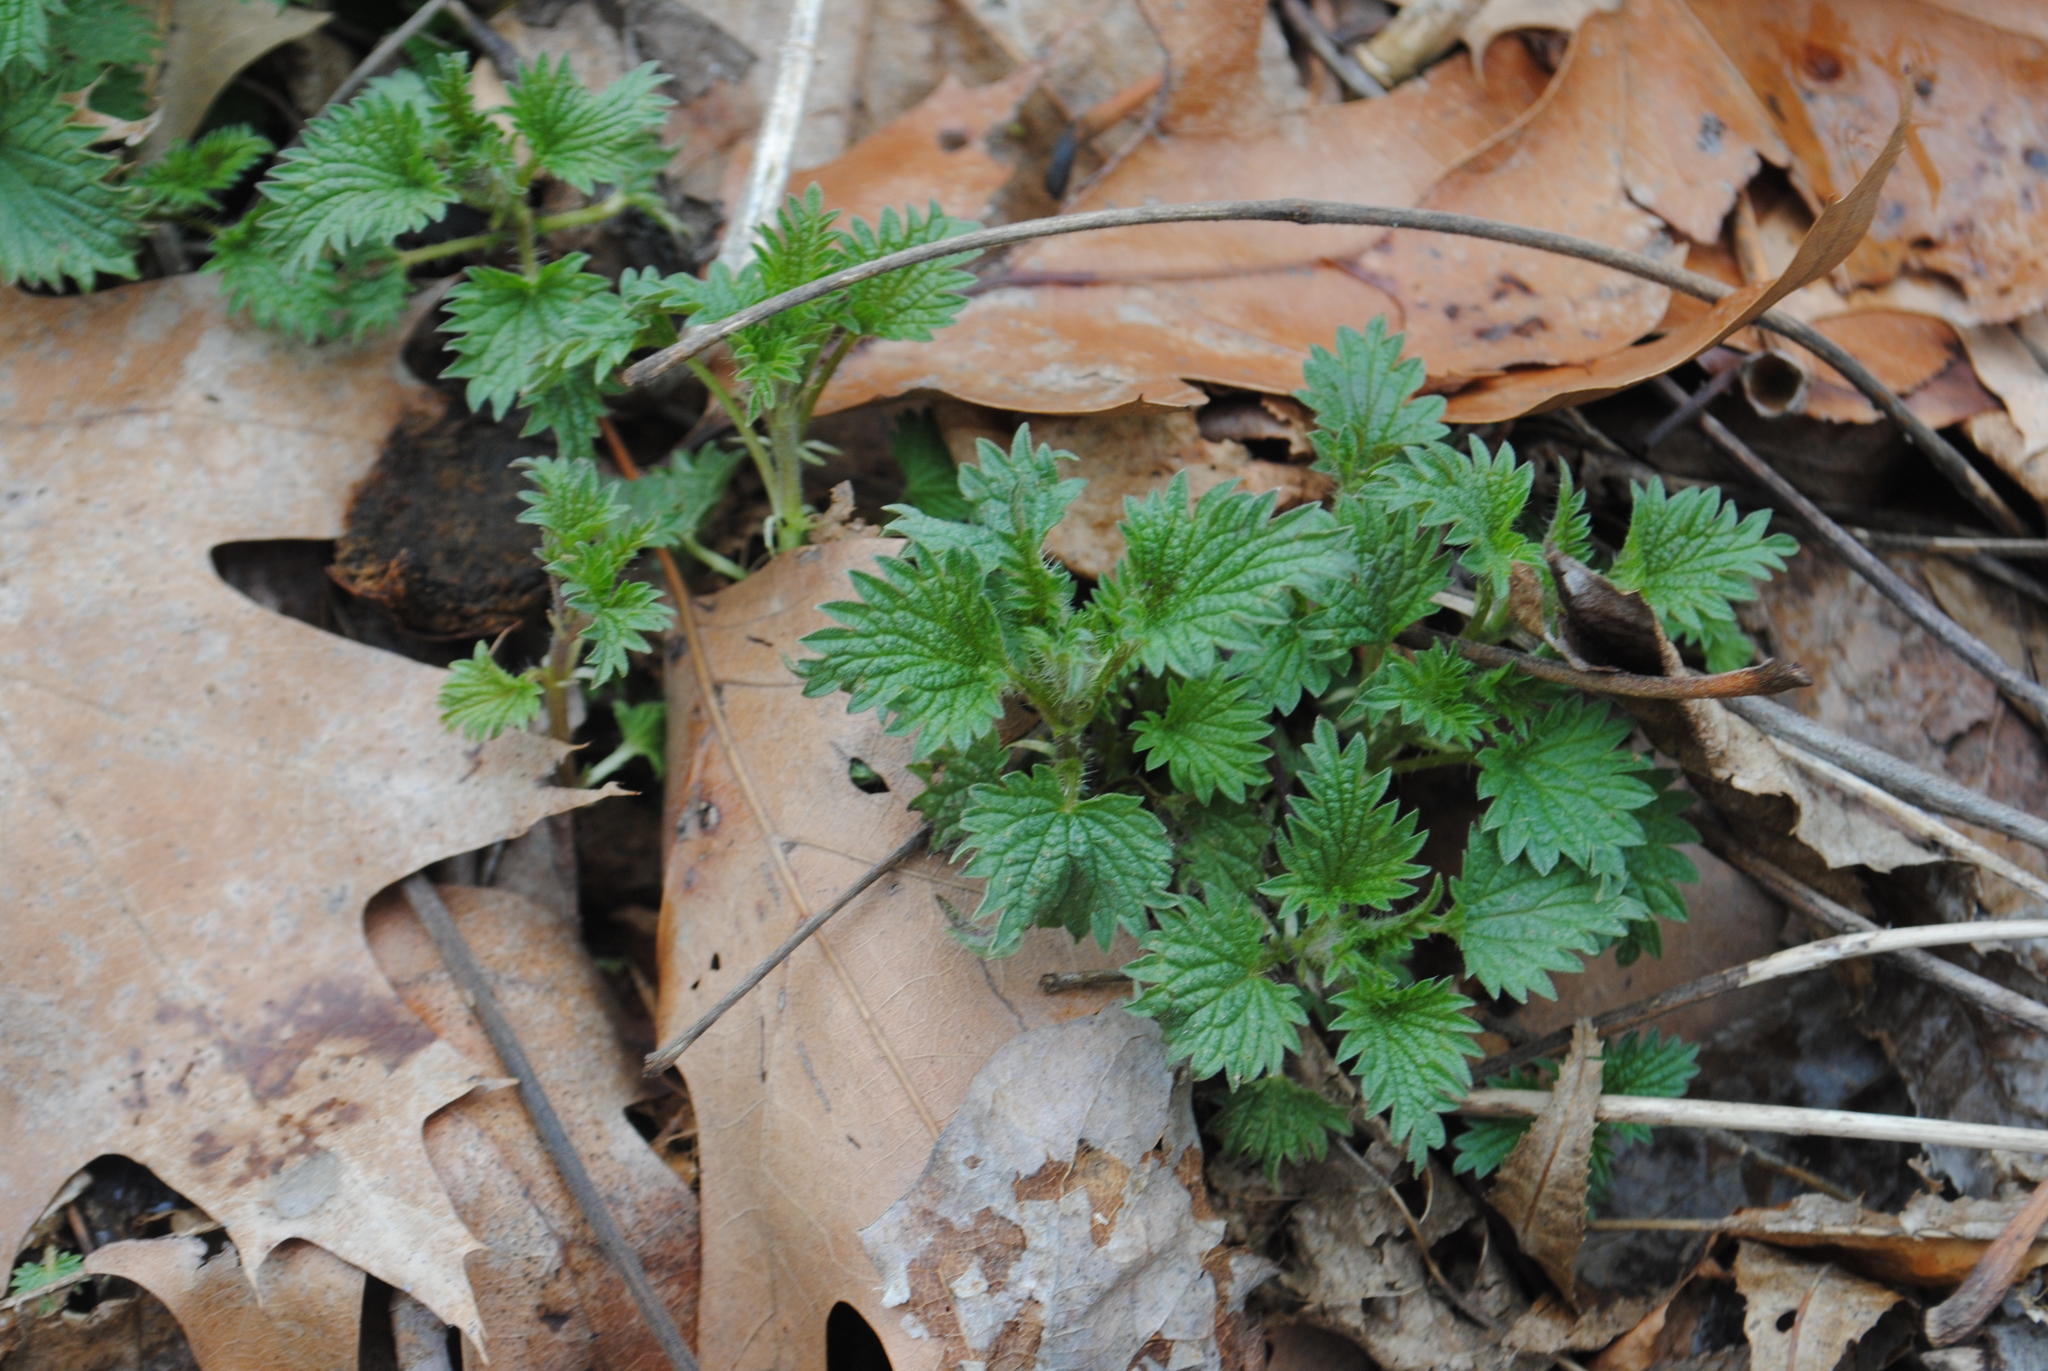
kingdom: Plantae
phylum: Tracheophyta
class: Magnoliopsida
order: Rosales
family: Urticaceae
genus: Urtica
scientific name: Urtica dioica
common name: Common nettle
